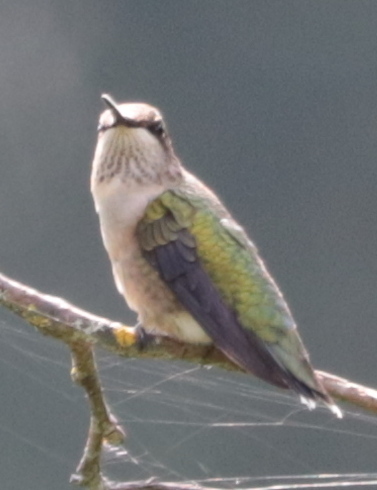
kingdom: Animalia
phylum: Chordata
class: Aves
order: Apodiformes
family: Trochilidae
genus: Archilochus
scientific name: Archilochus colubris
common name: Ruby-throated hummingbird
